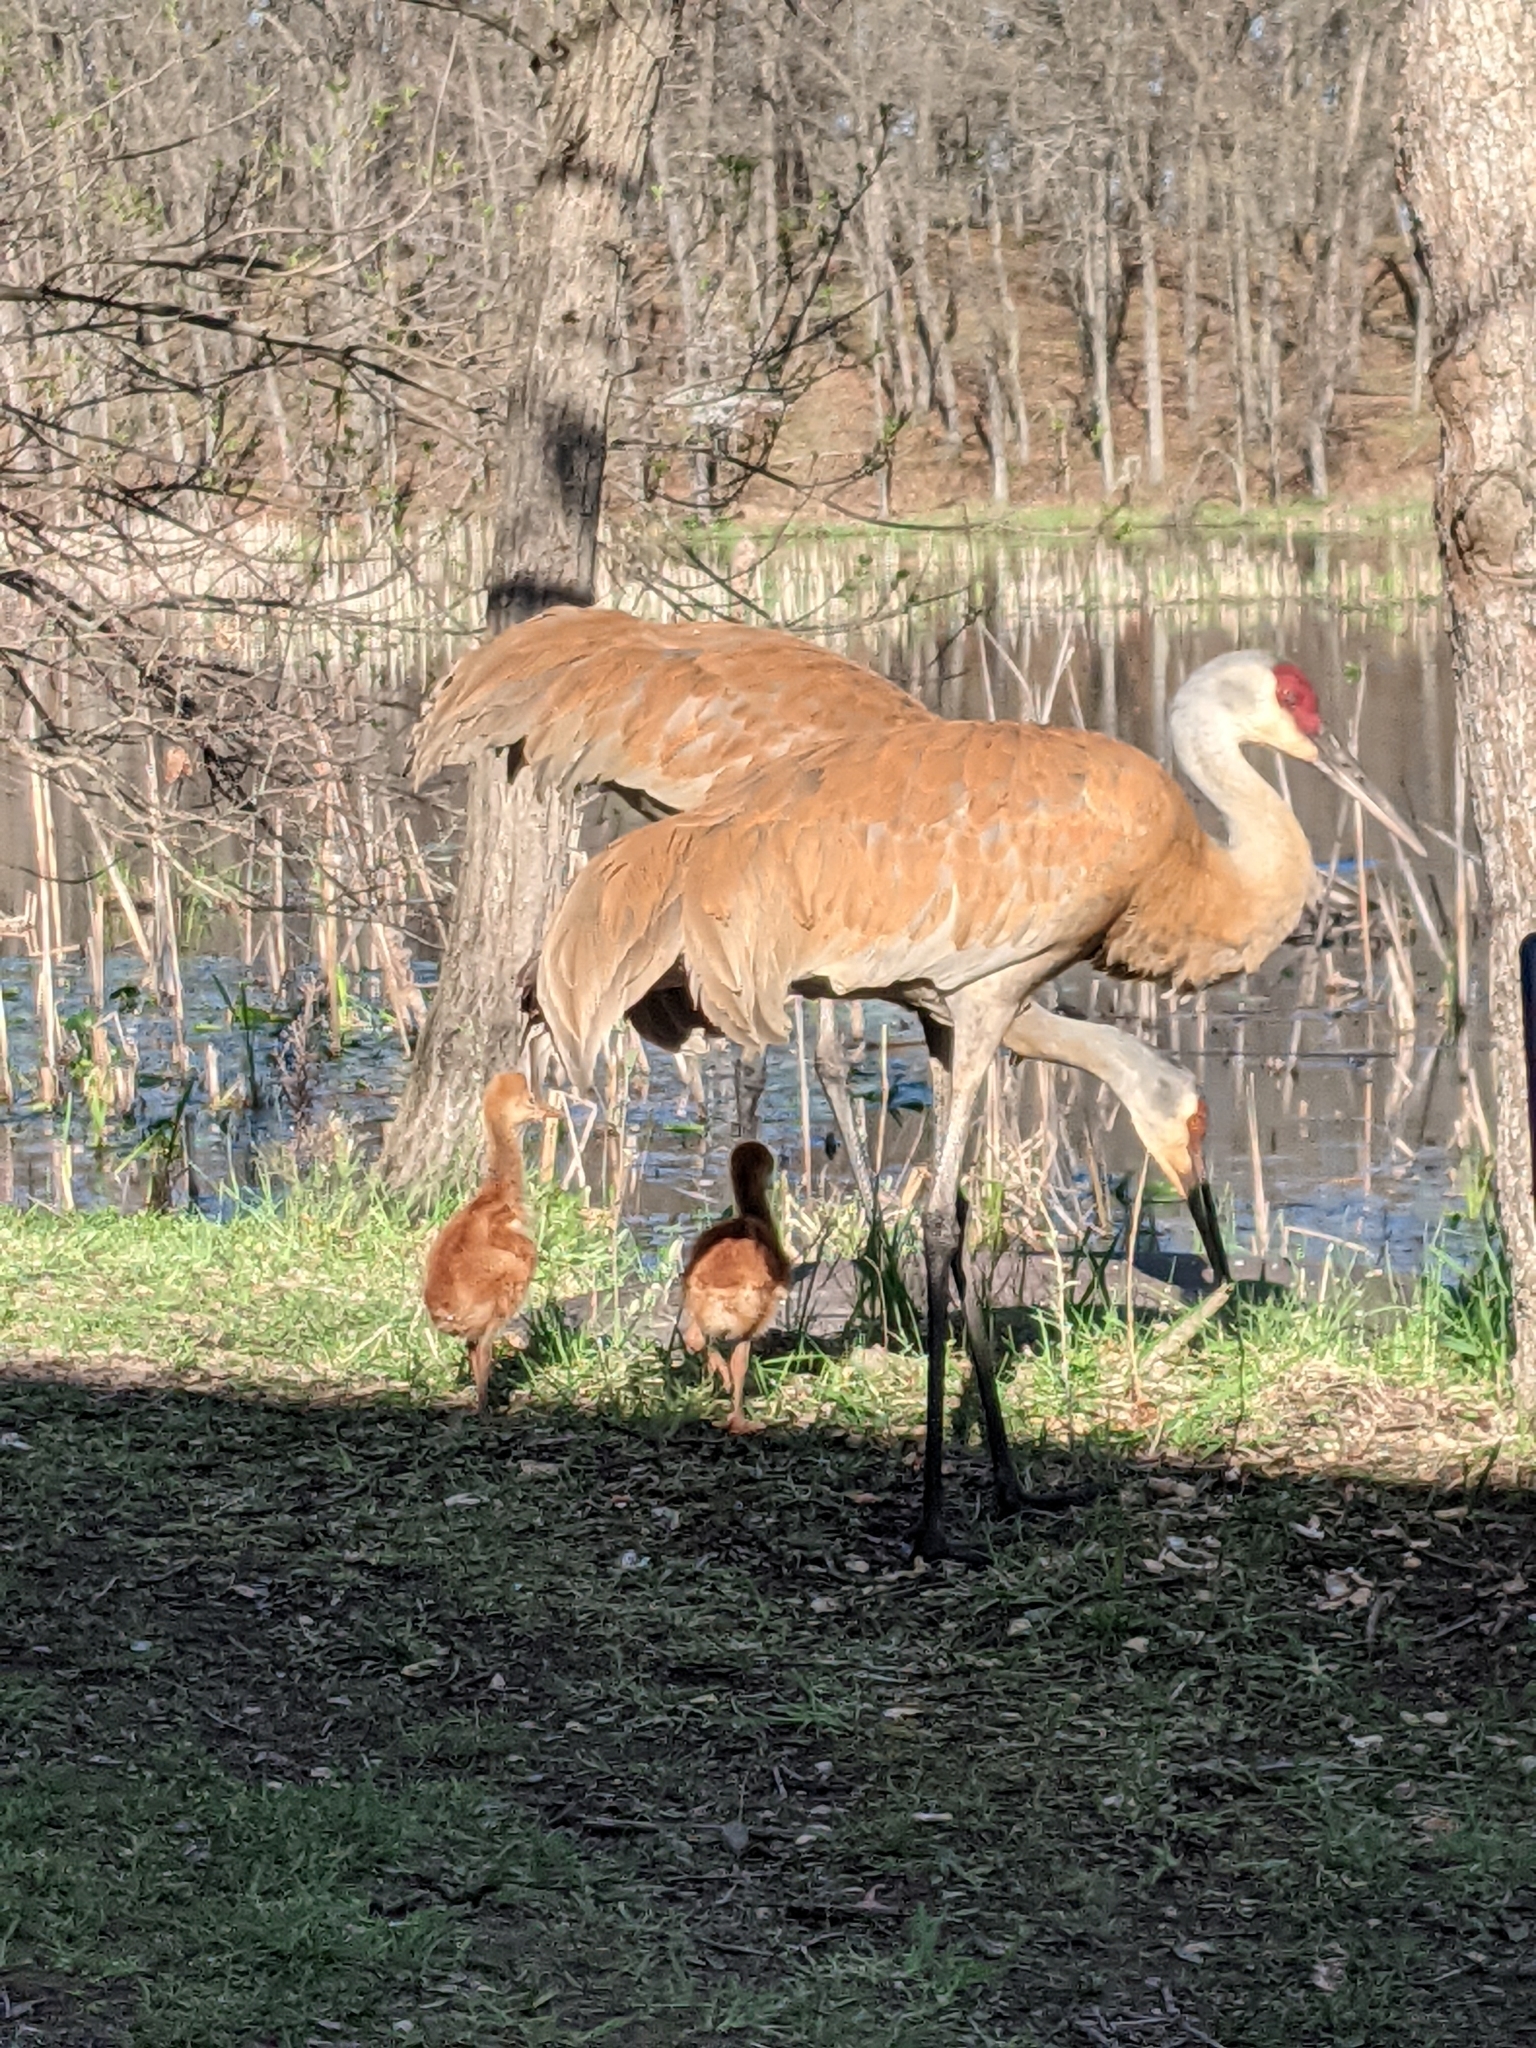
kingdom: Animalia
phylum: Chordata
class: Aves
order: Gruiformes
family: Gruidae
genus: Grus
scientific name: Grus canadensis
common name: Sandhill crane
